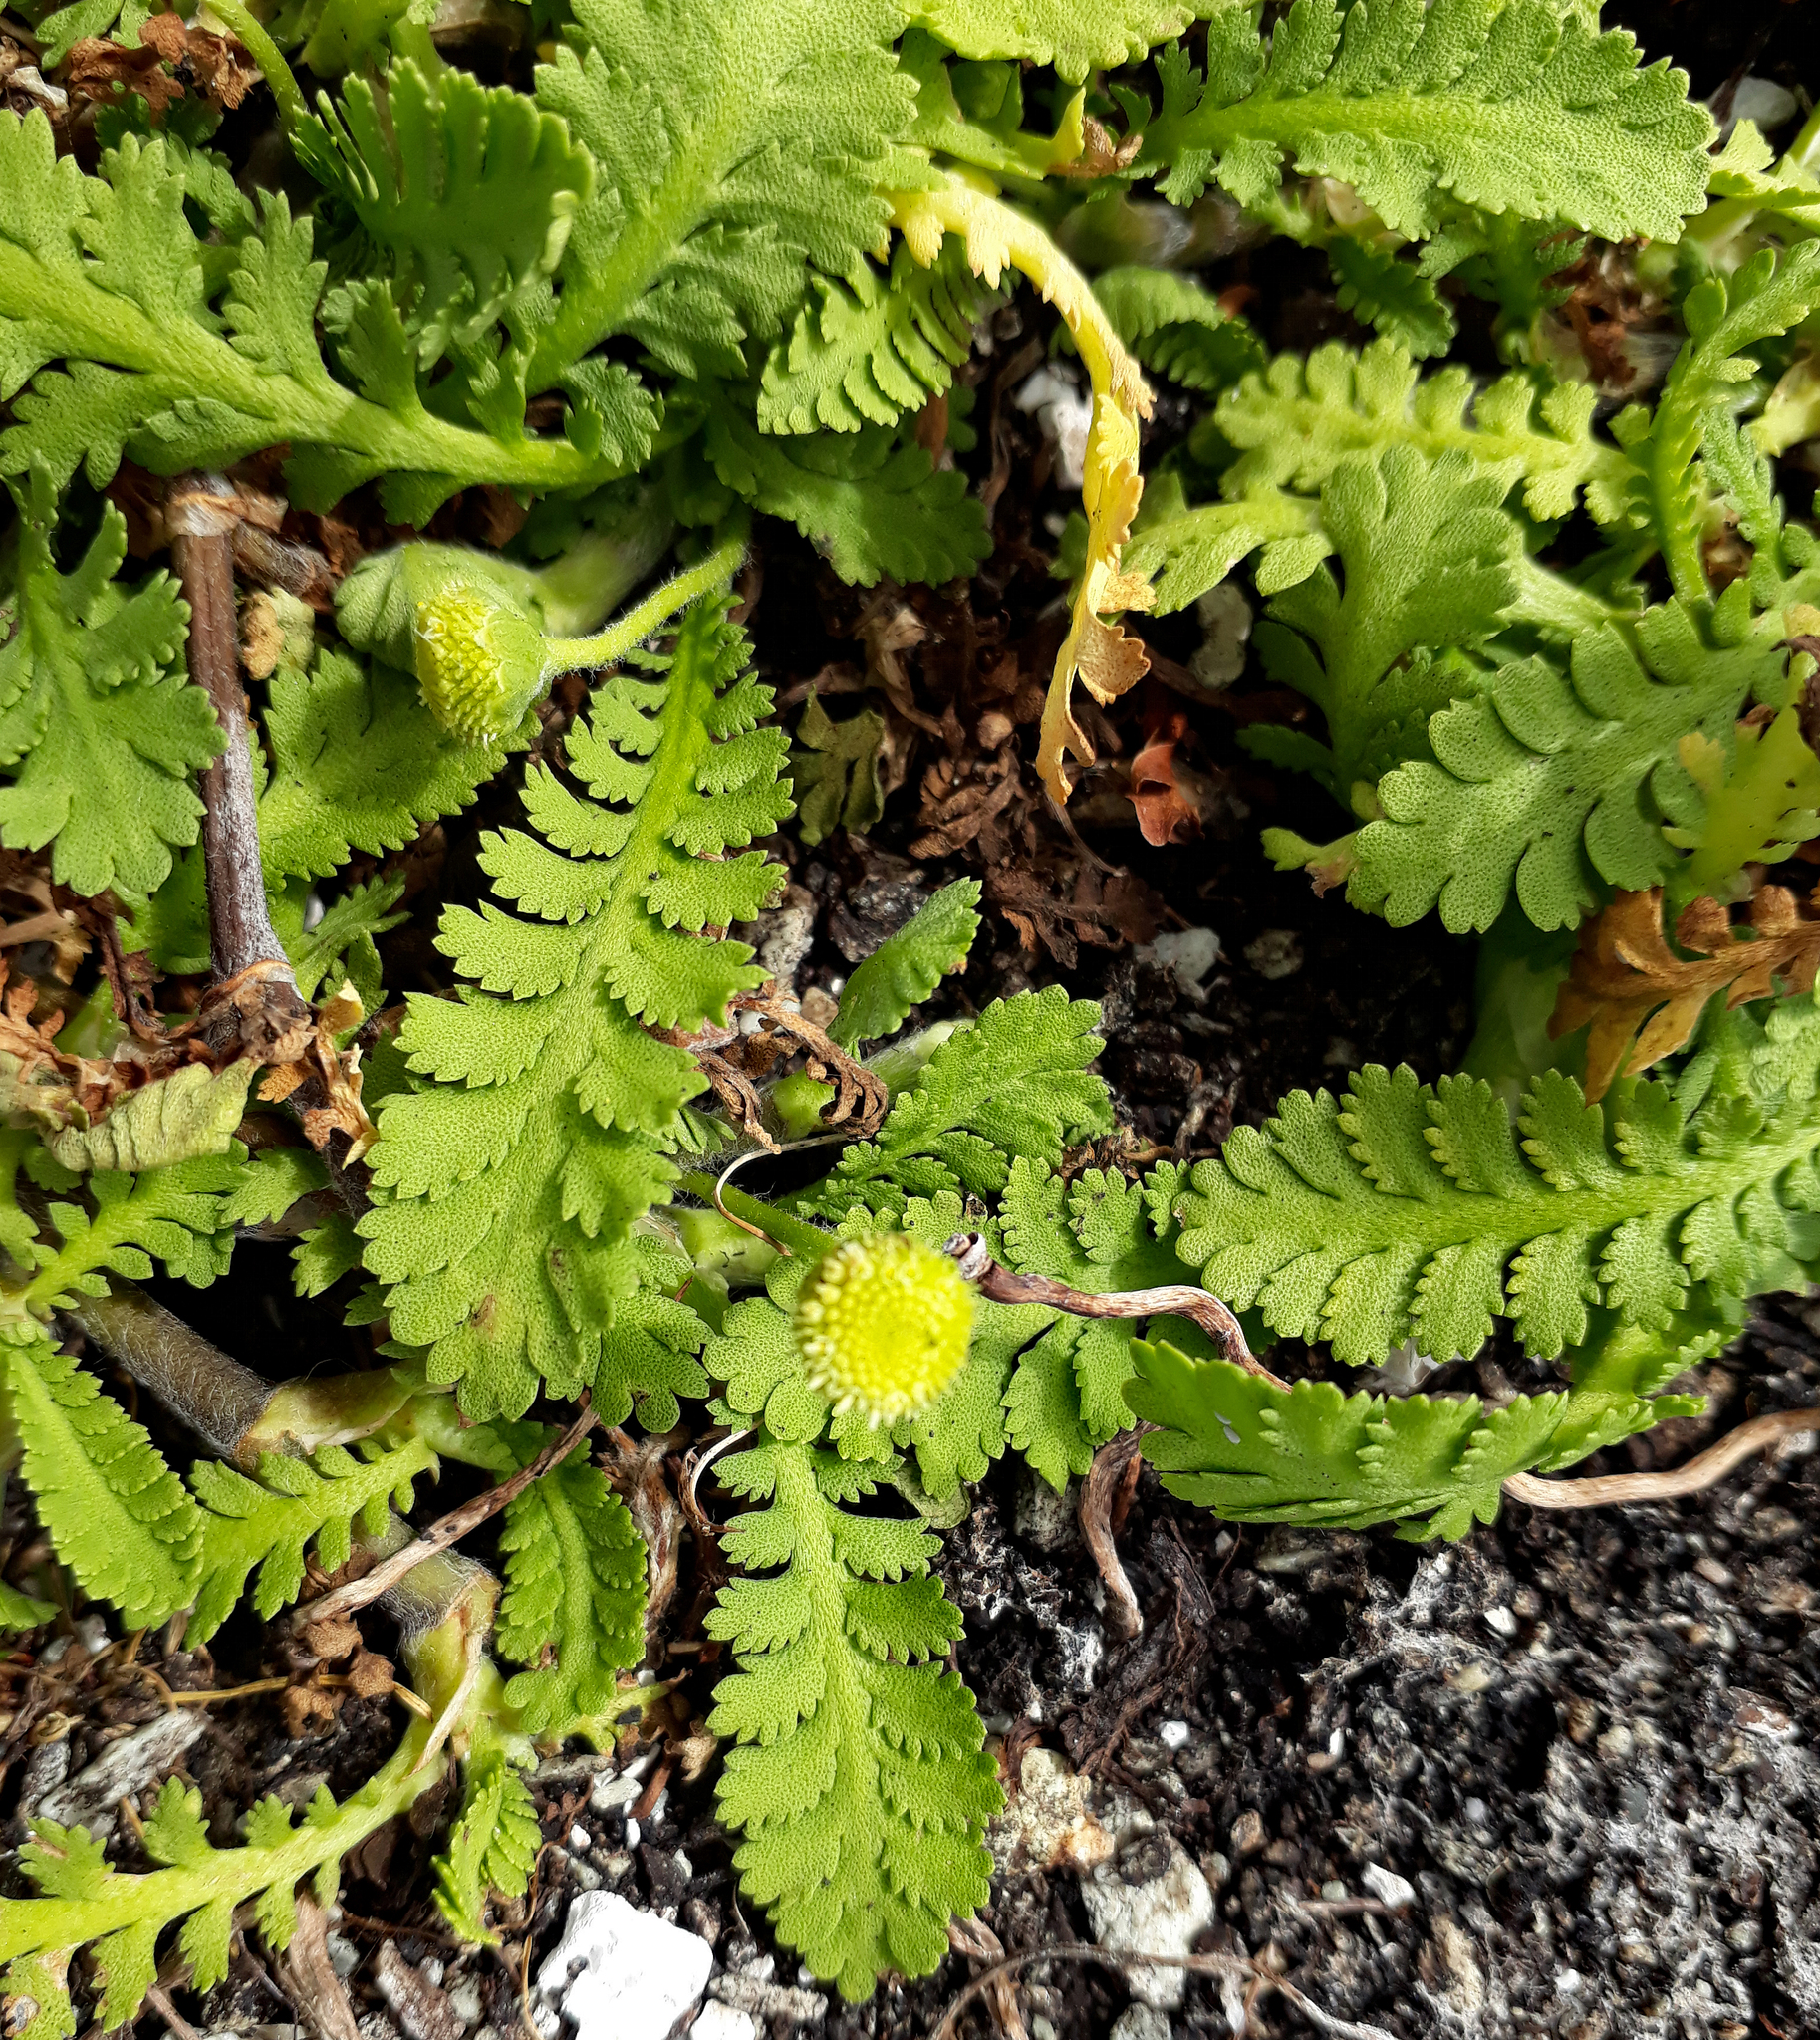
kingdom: Plantae
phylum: Tracheophyta
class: Magnoliopsida
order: Asterales
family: Asteraceae
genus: Leptinella
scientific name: Leptinella potentillina
